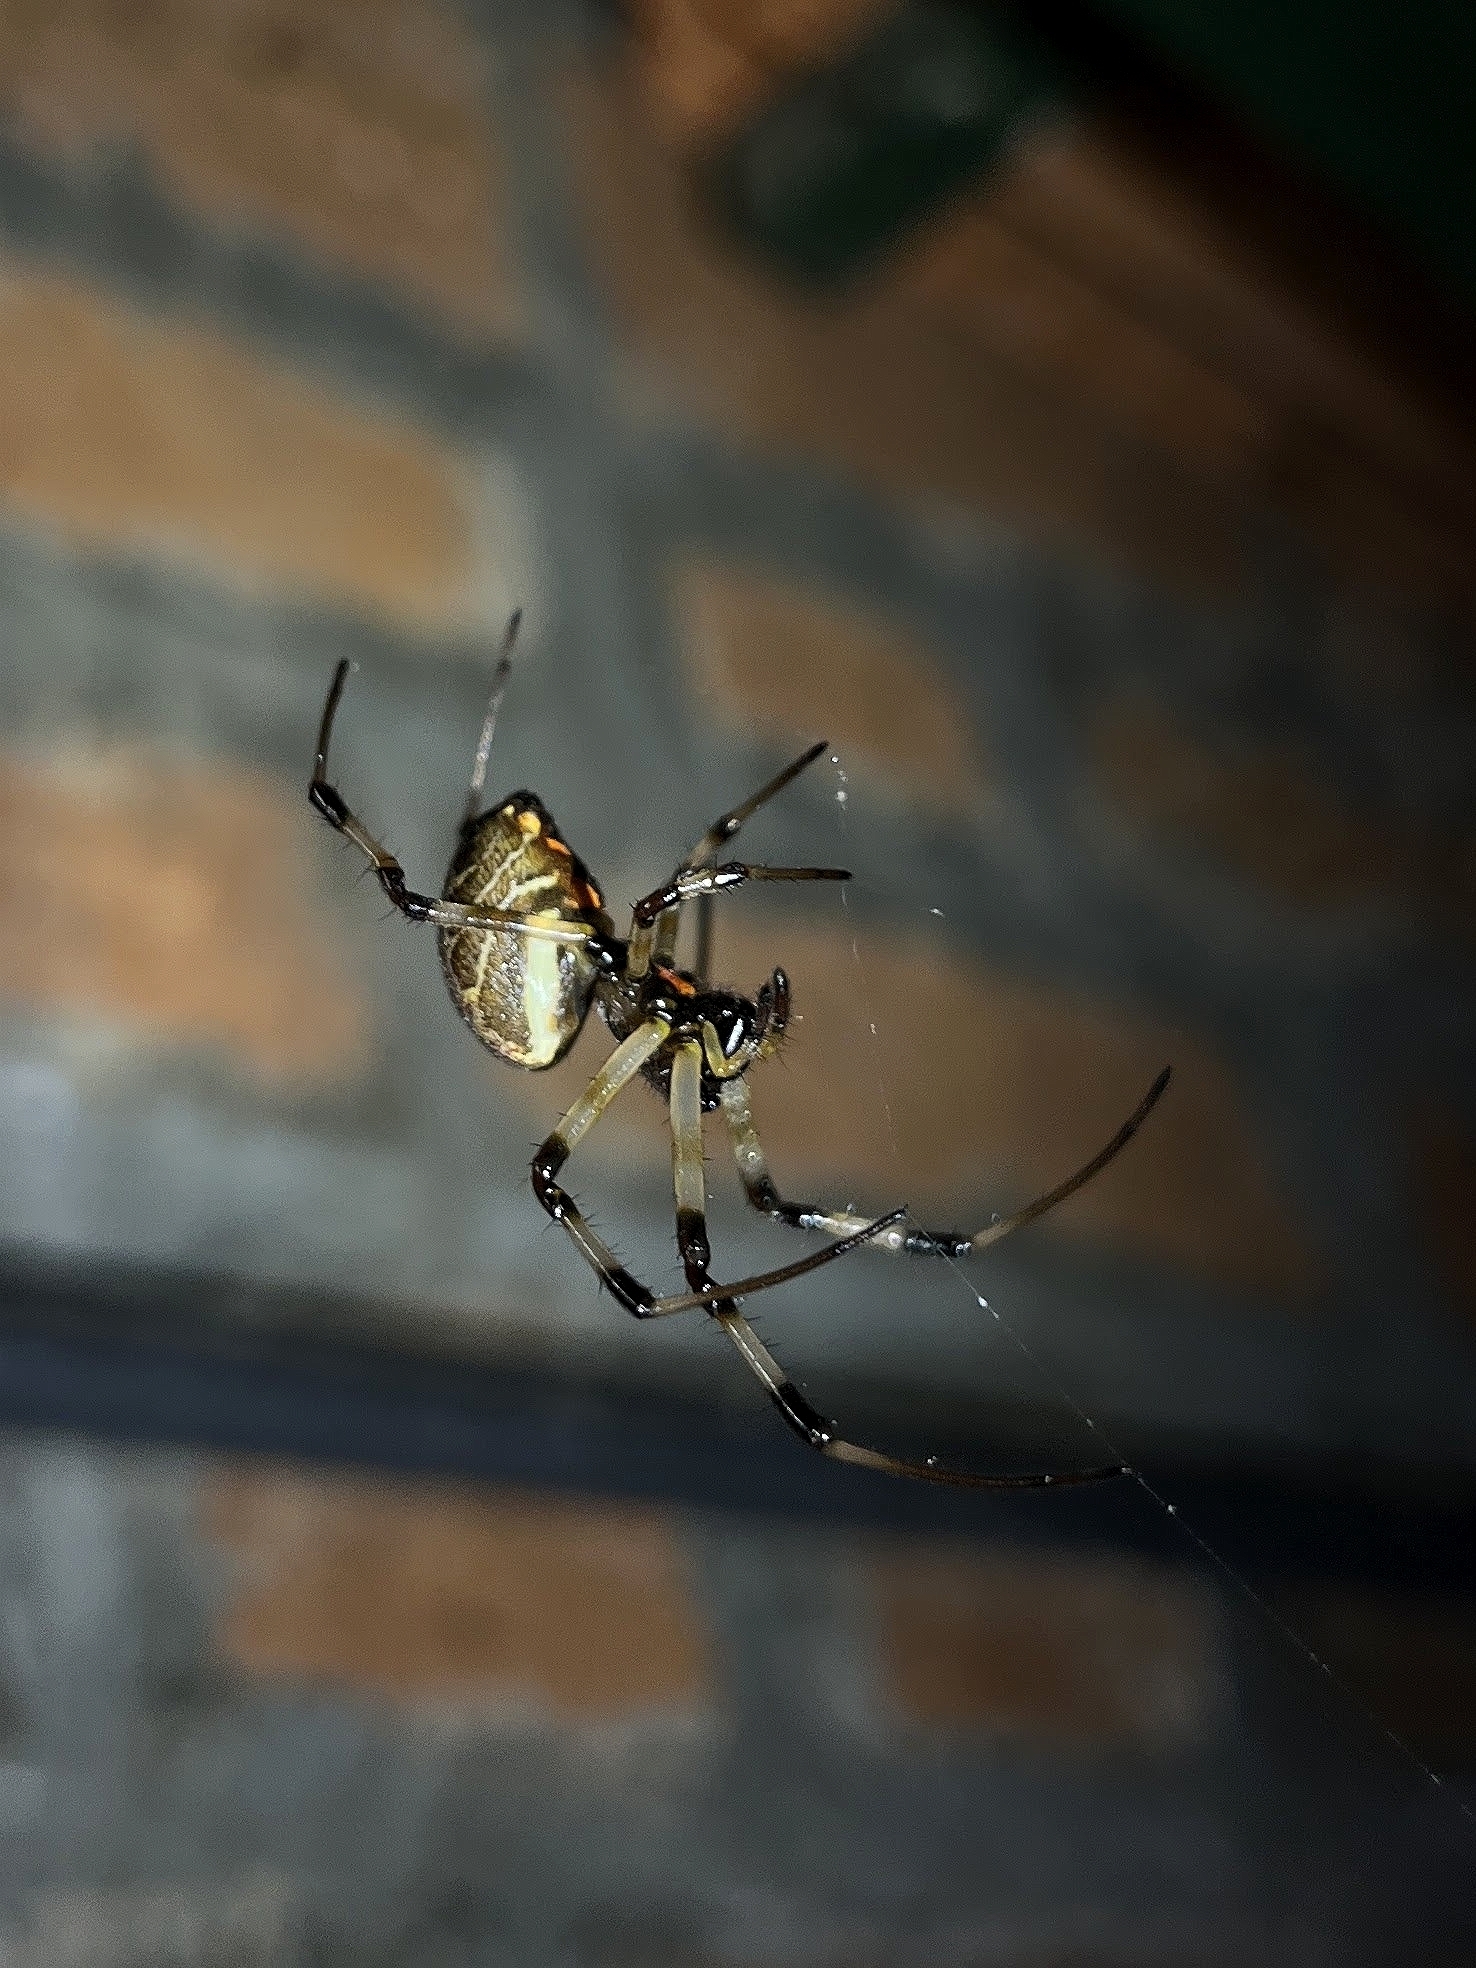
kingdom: Animalia
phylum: Arthropoda
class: Arachnida
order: Araneae
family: Araneidae
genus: Nephilengys
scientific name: Nephilengys malabarensis
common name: Asian hermit spider
